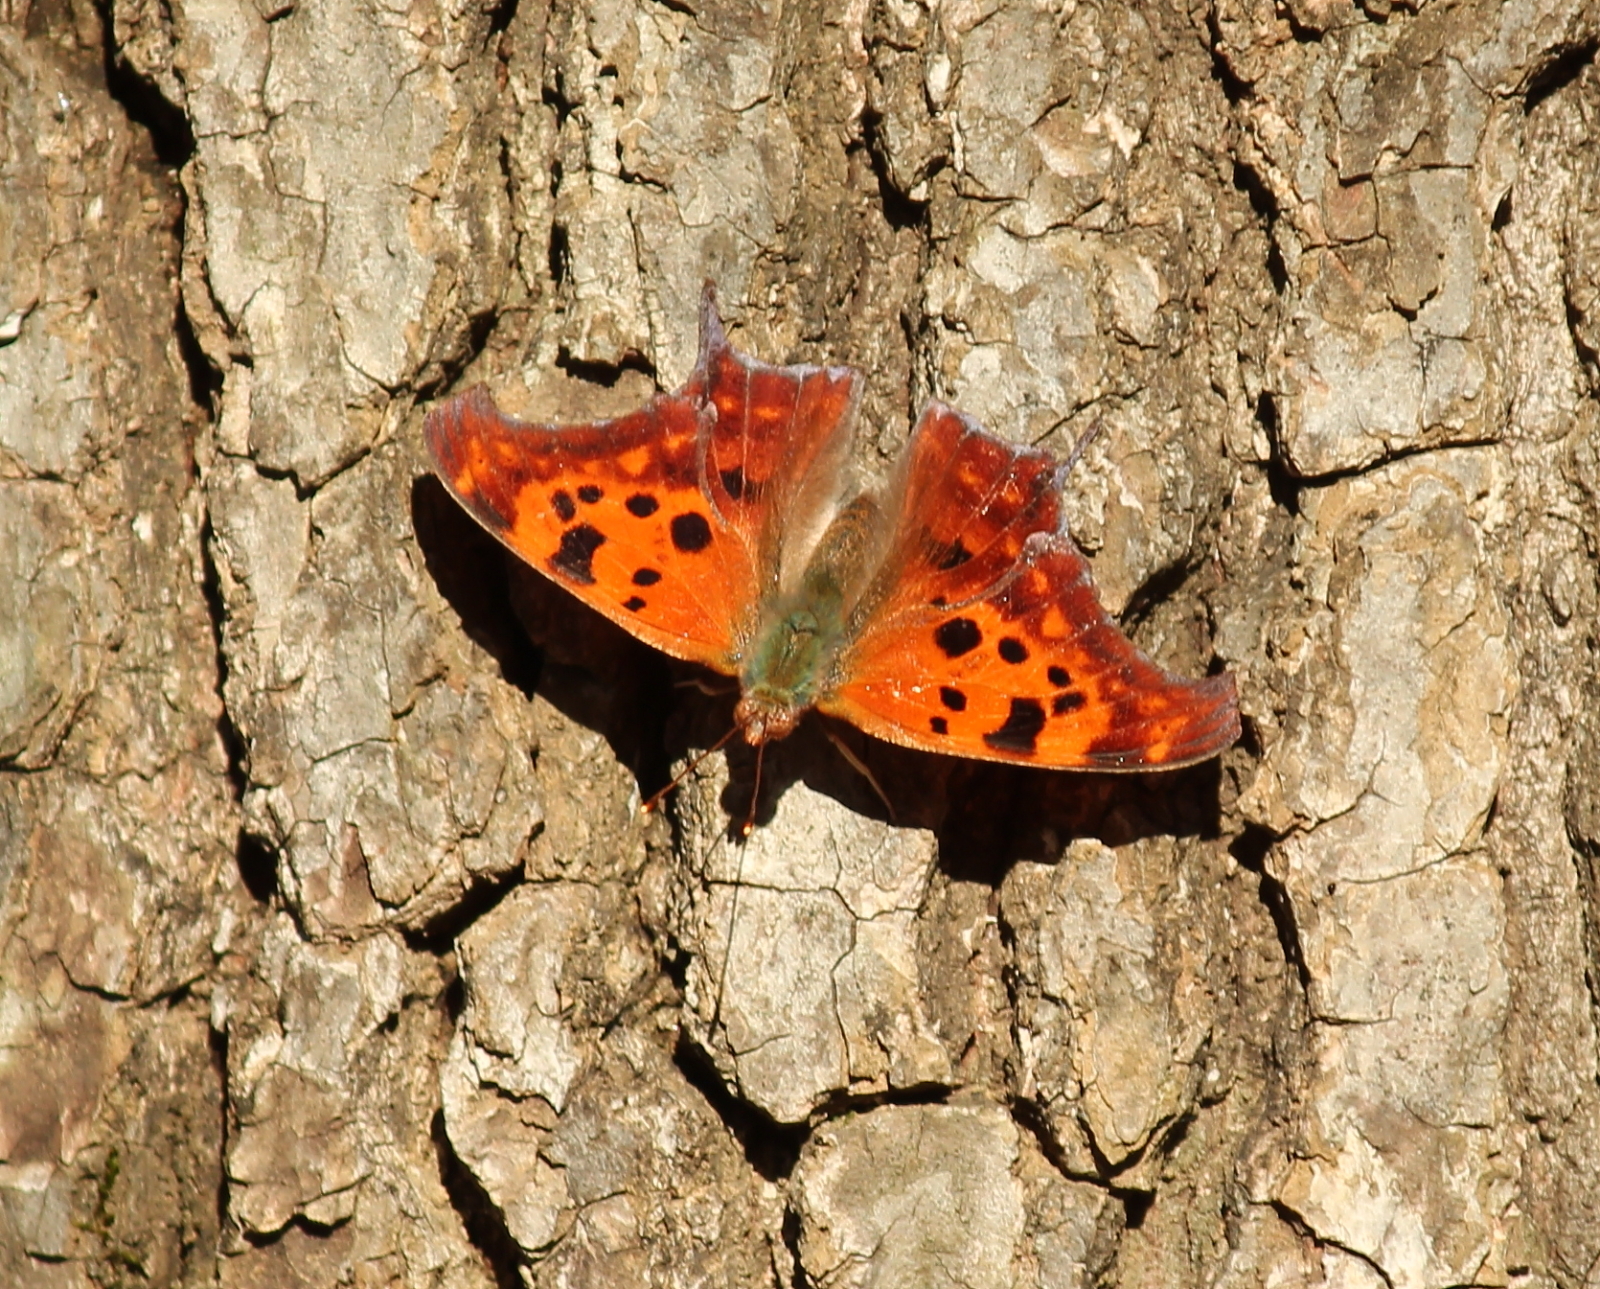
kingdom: Animalia
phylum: Arthropoda
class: Insecta
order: Lepidoptera
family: Nymphalidae
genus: Polygonia
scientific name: Polygonia interrogationis
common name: Question mark
